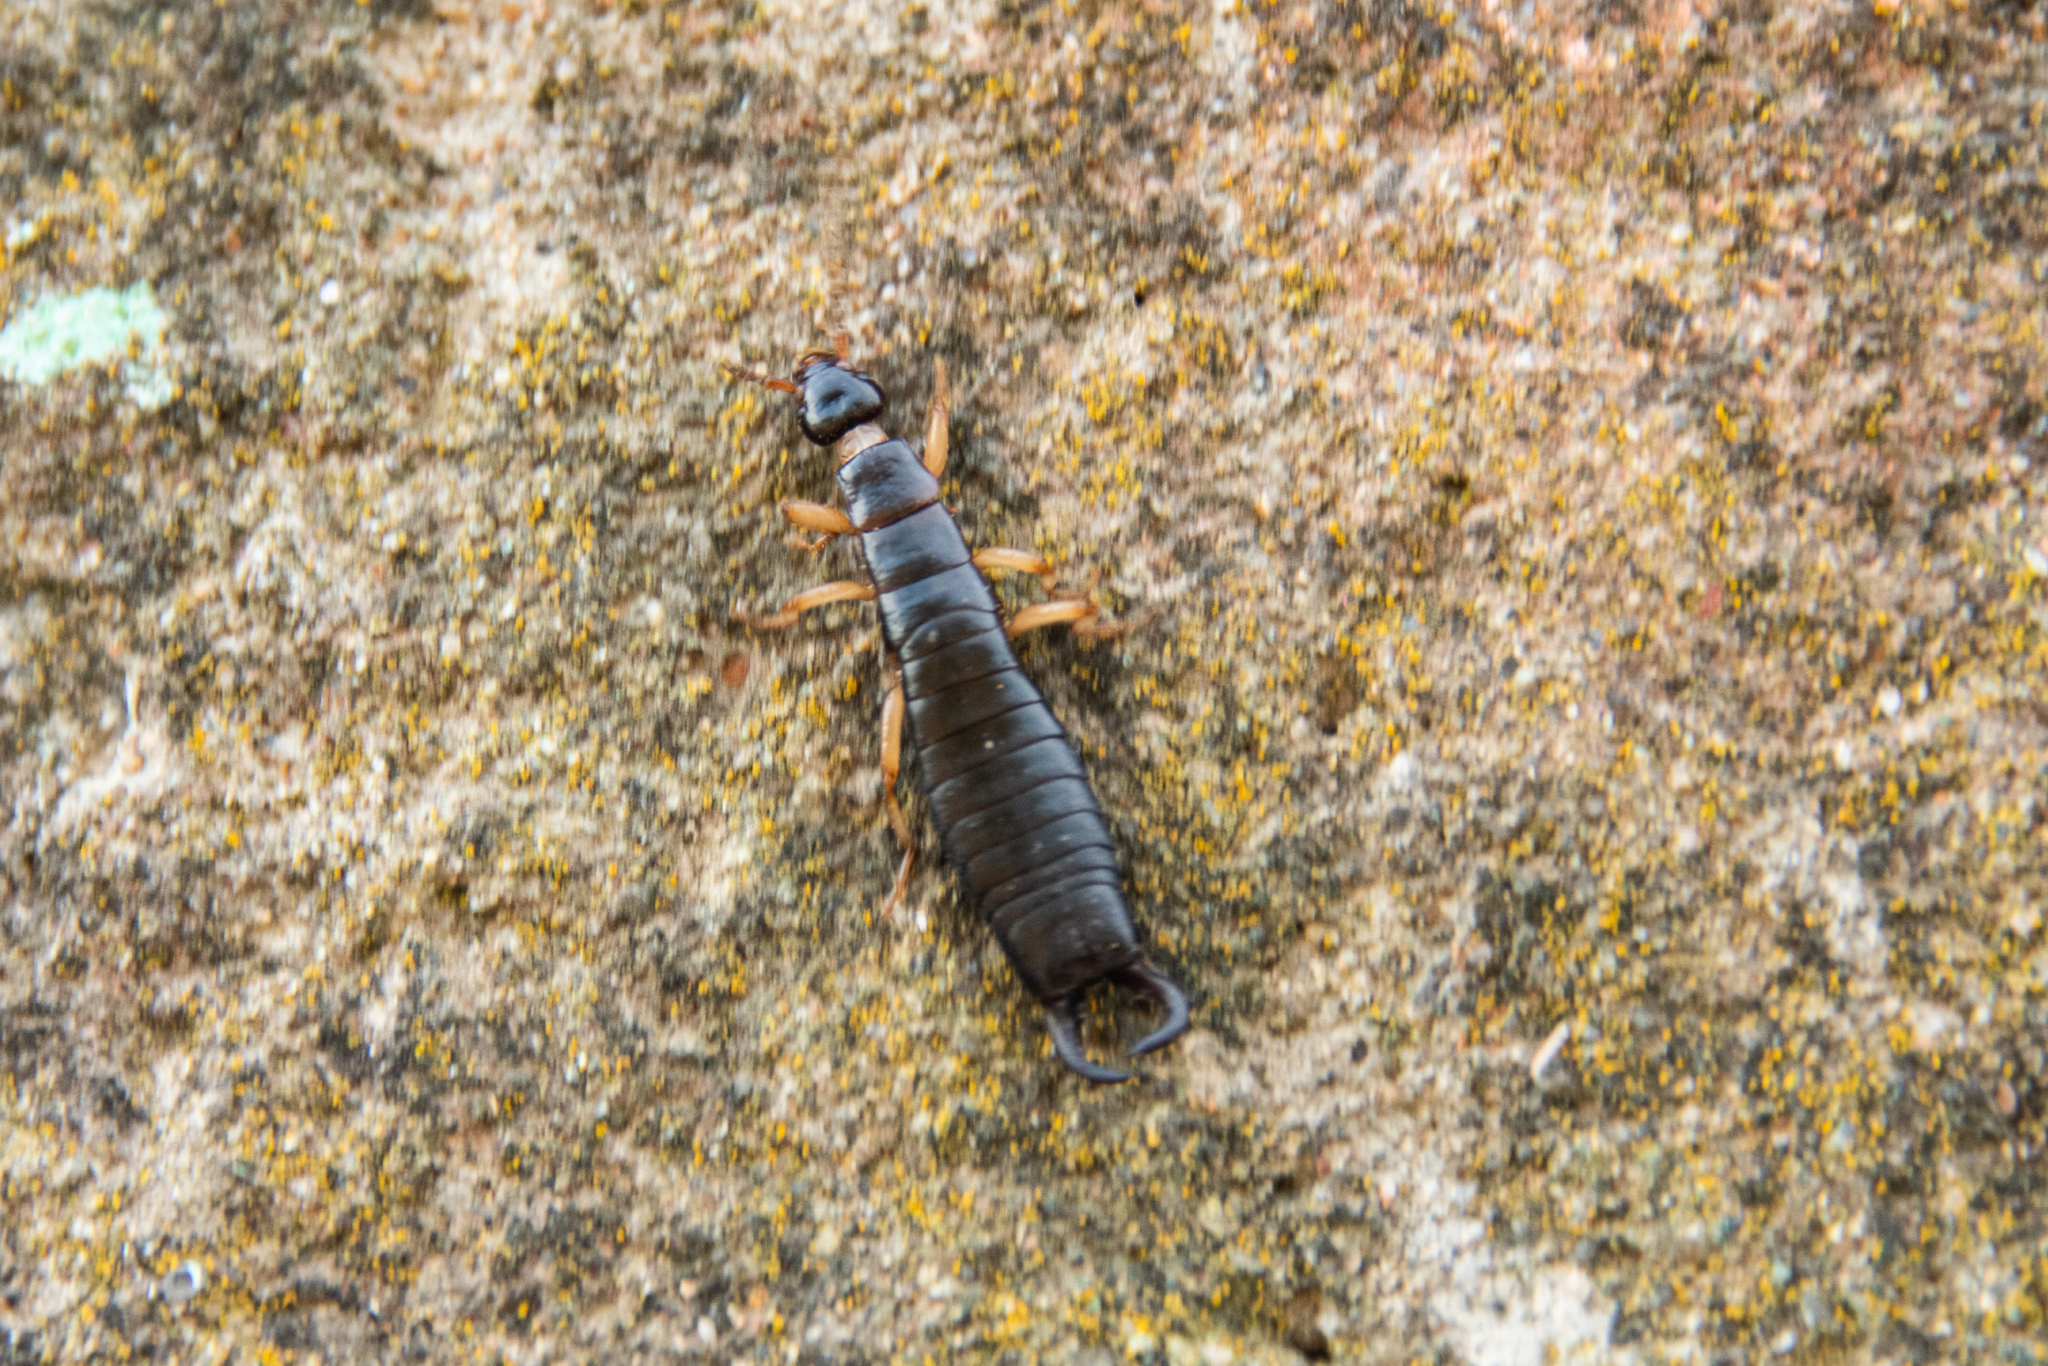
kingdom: Animalia
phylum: Arthropoda
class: Insecta
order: Dermaptera
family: Anisolabididae
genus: Anisolabis
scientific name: Anisolabis maritima
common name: Maritime earwig
